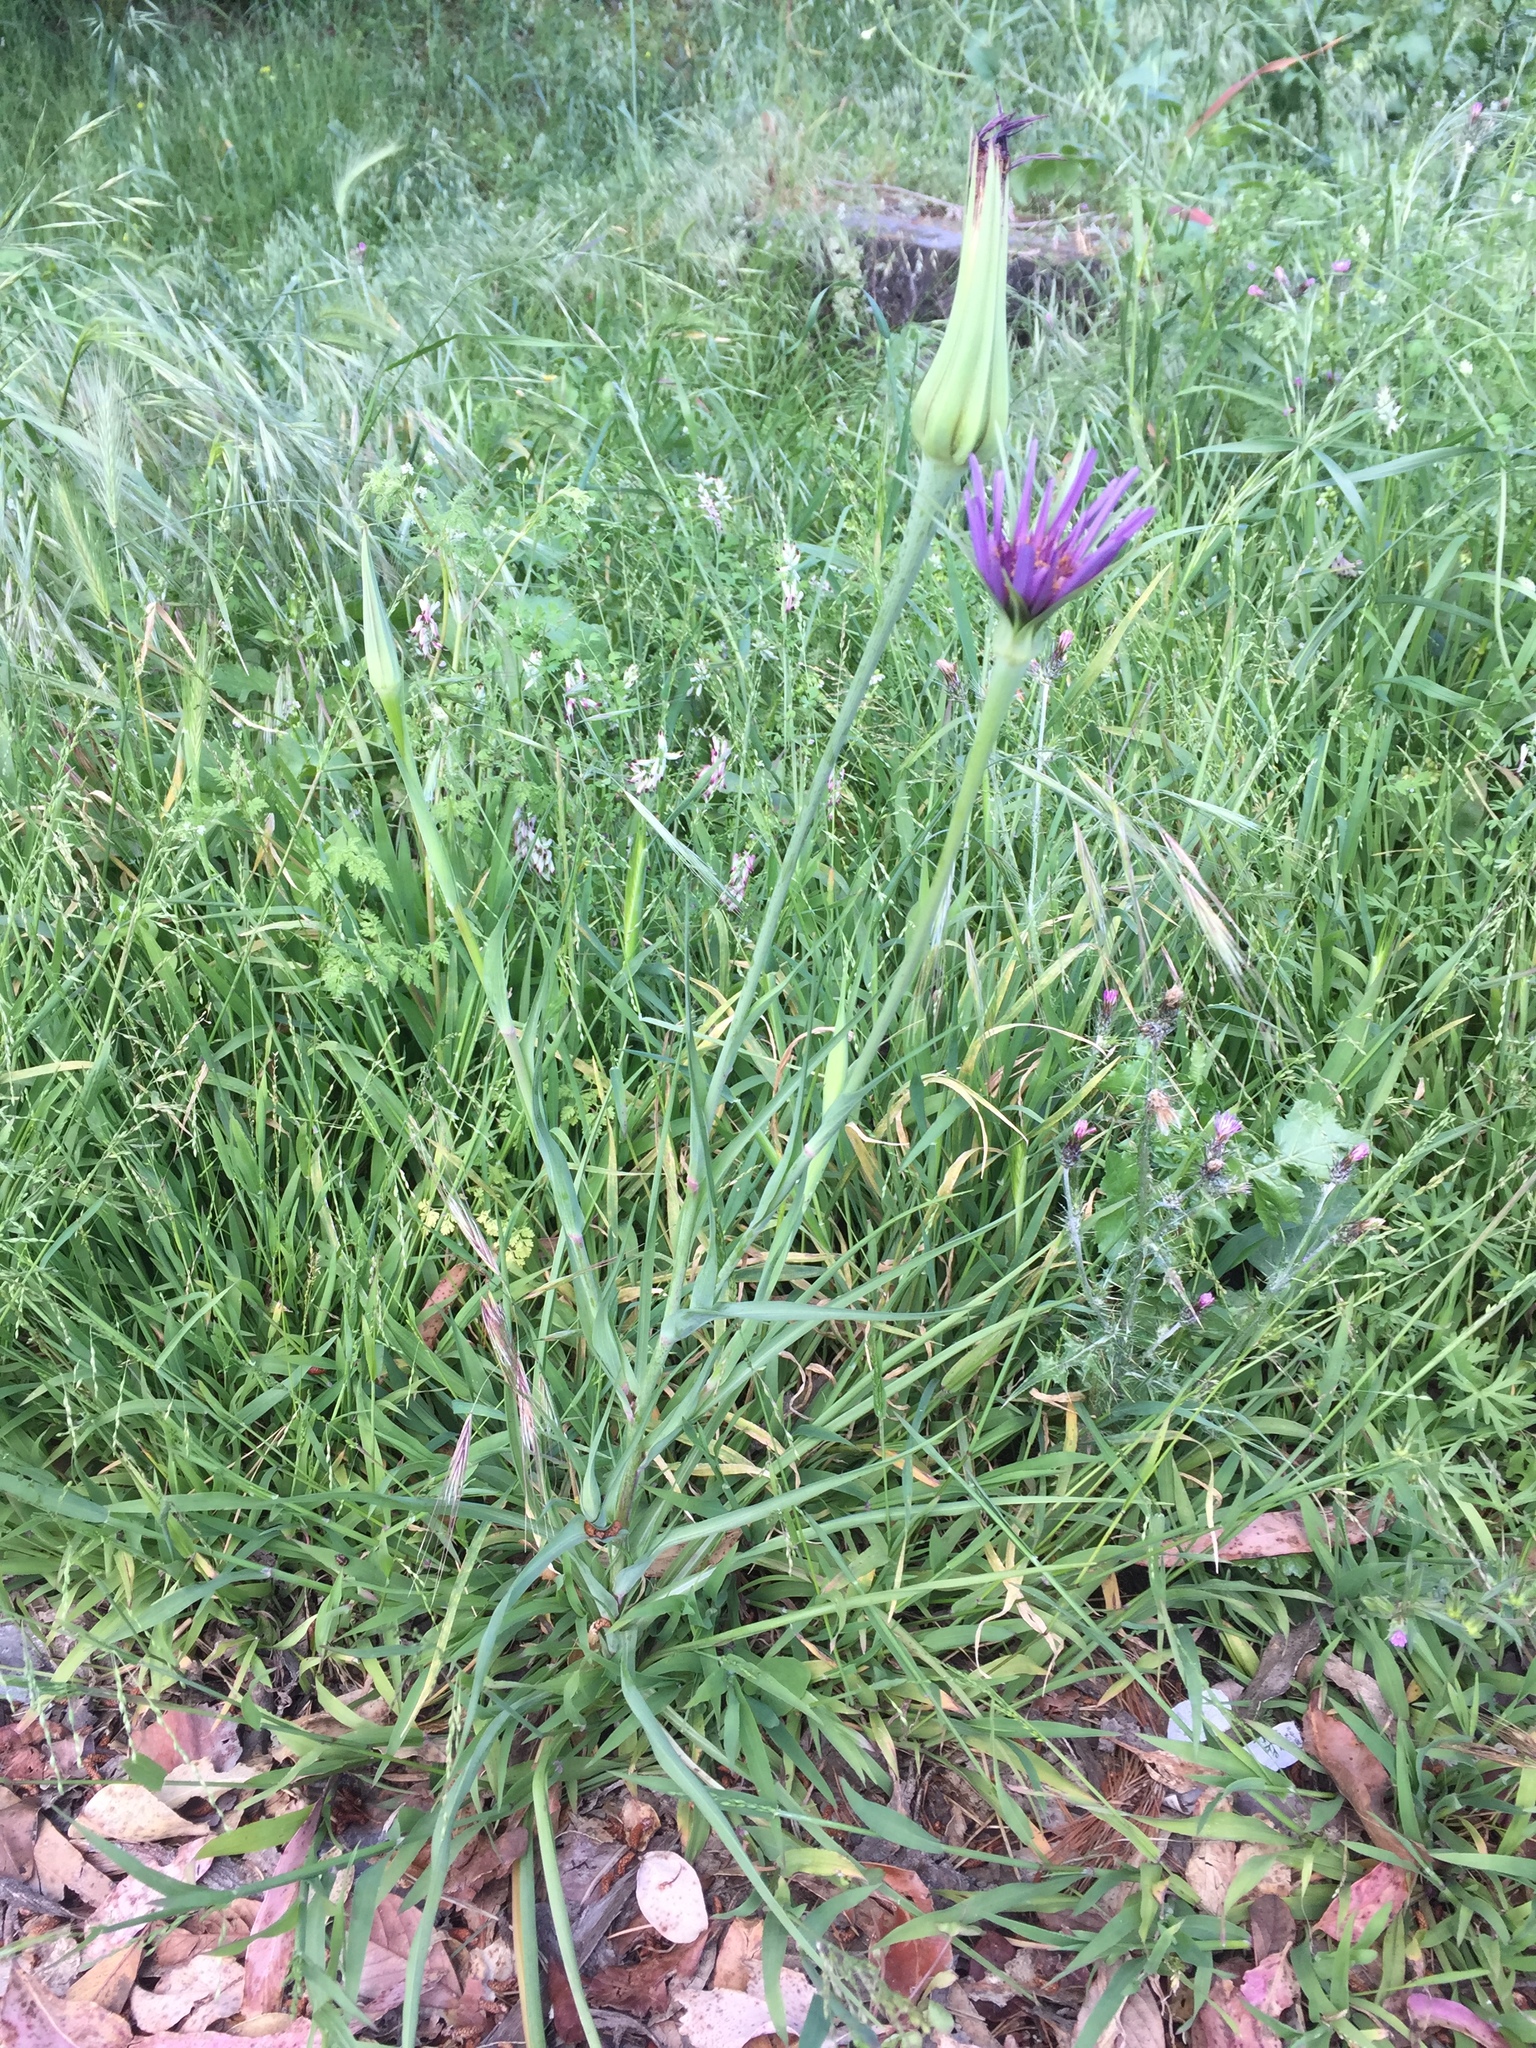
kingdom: Plantae
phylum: Tracheophyta
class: Magnoliopsida
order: Asterales
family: Asteraceae
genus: Tragopogon
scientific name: Tragopogon porrifolius
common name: Salsify
